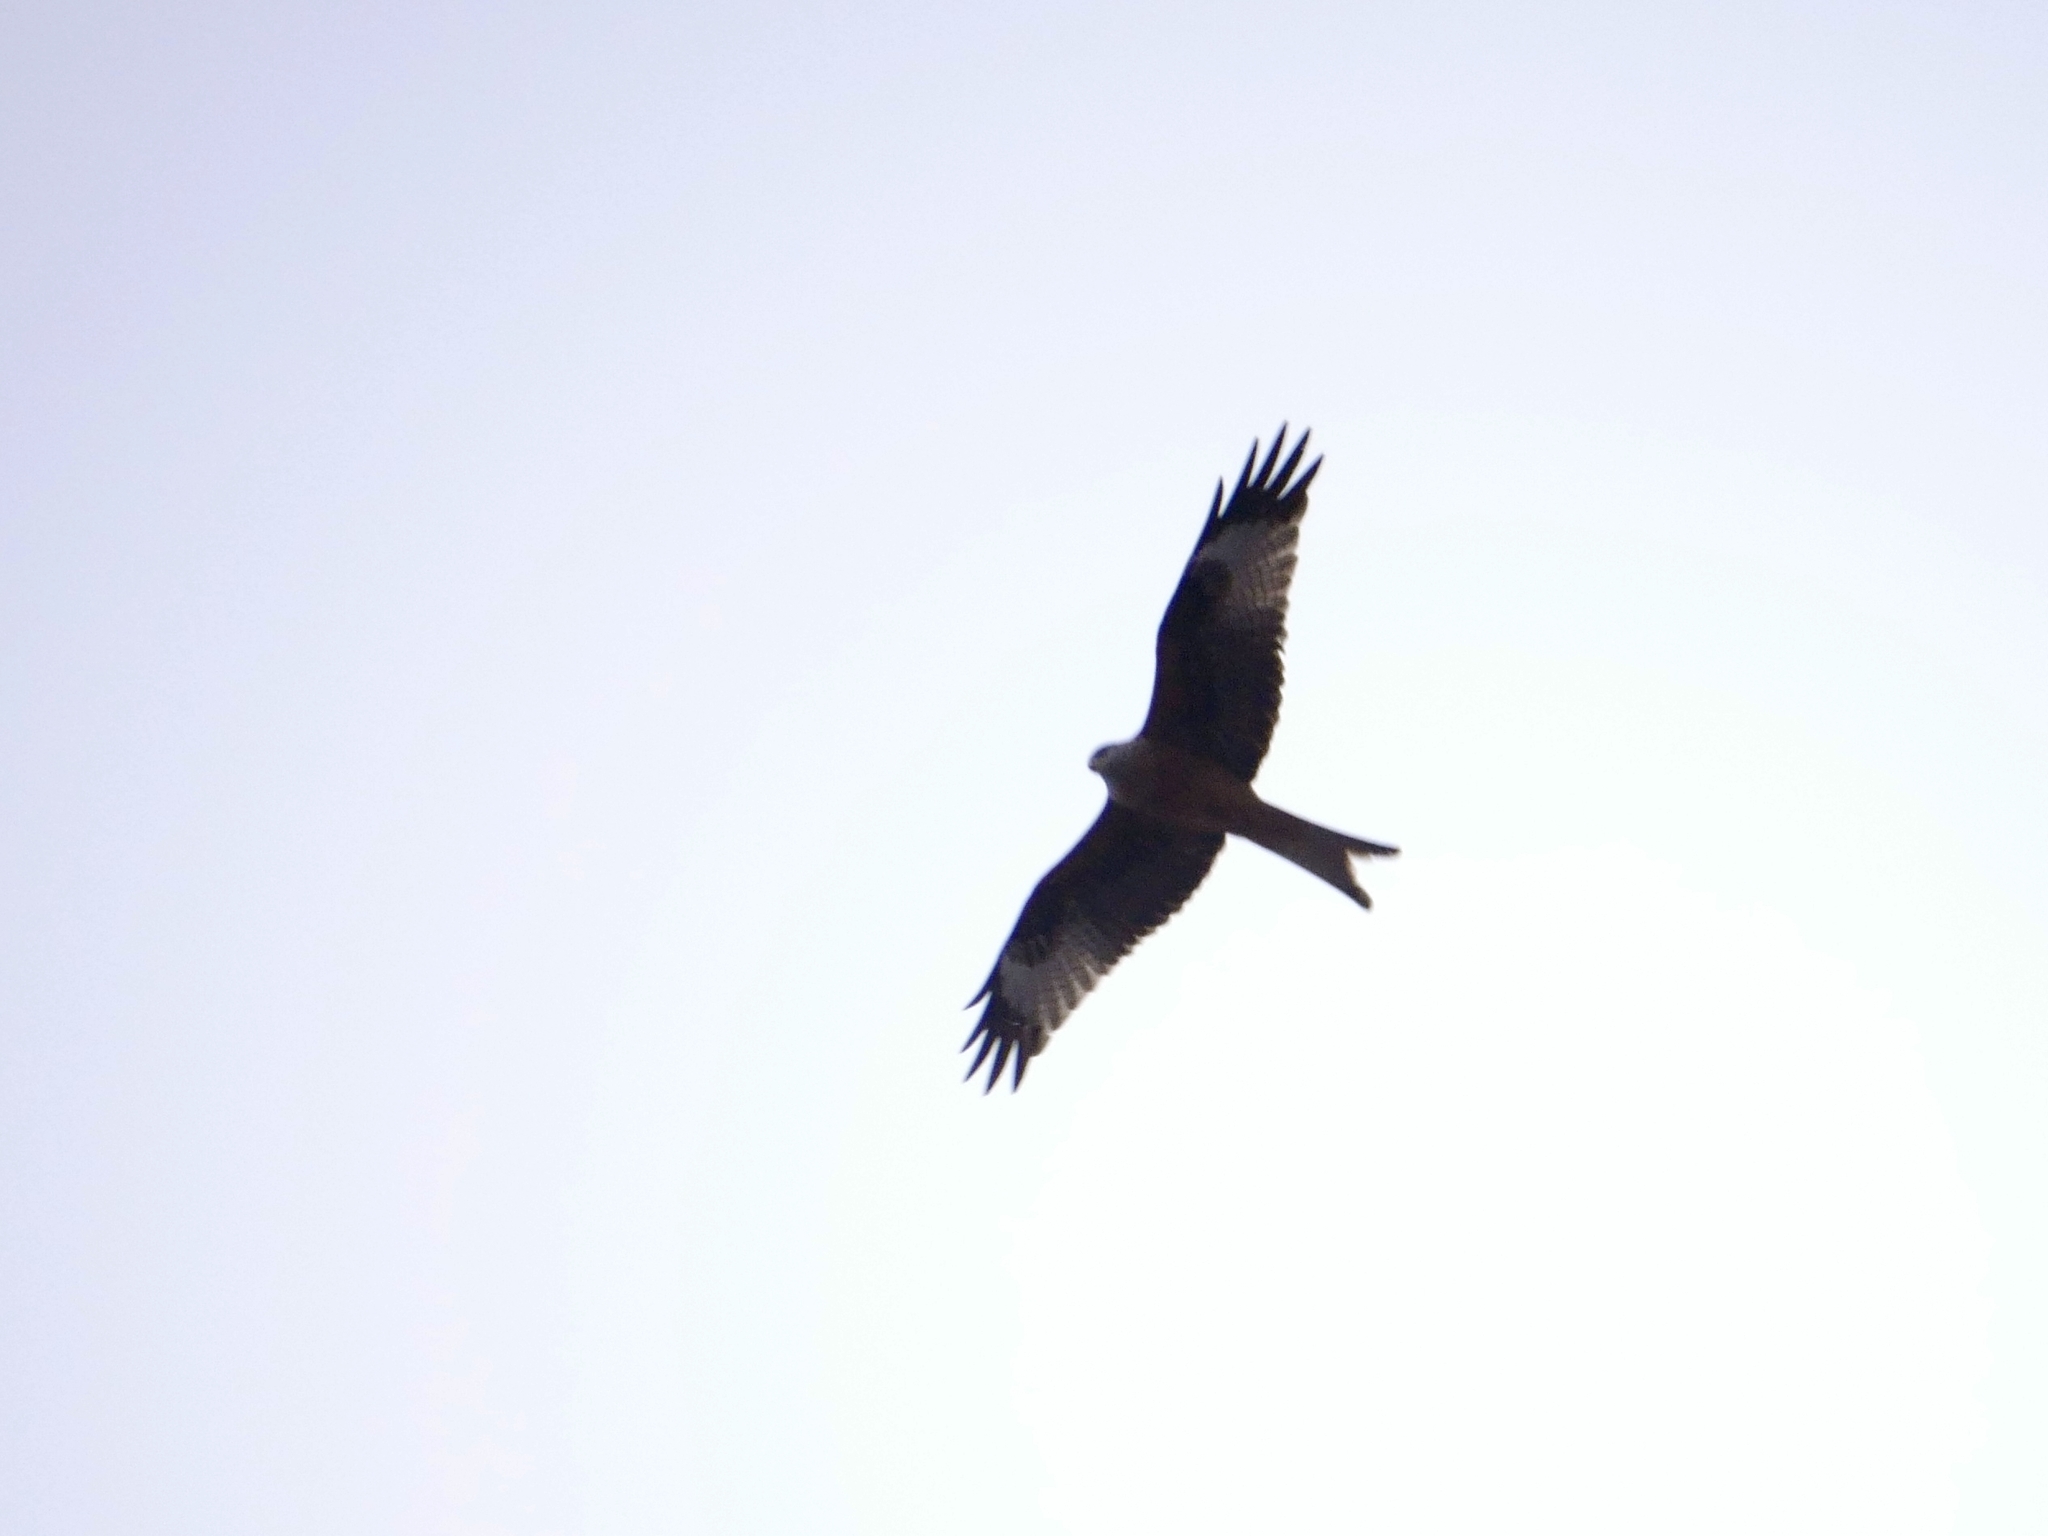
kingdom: Animalia
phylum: Chordata
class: Aves
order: Accipitriformes
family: Accipitridae
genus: Milvus
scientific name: Milvus milvus
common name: Red kite
